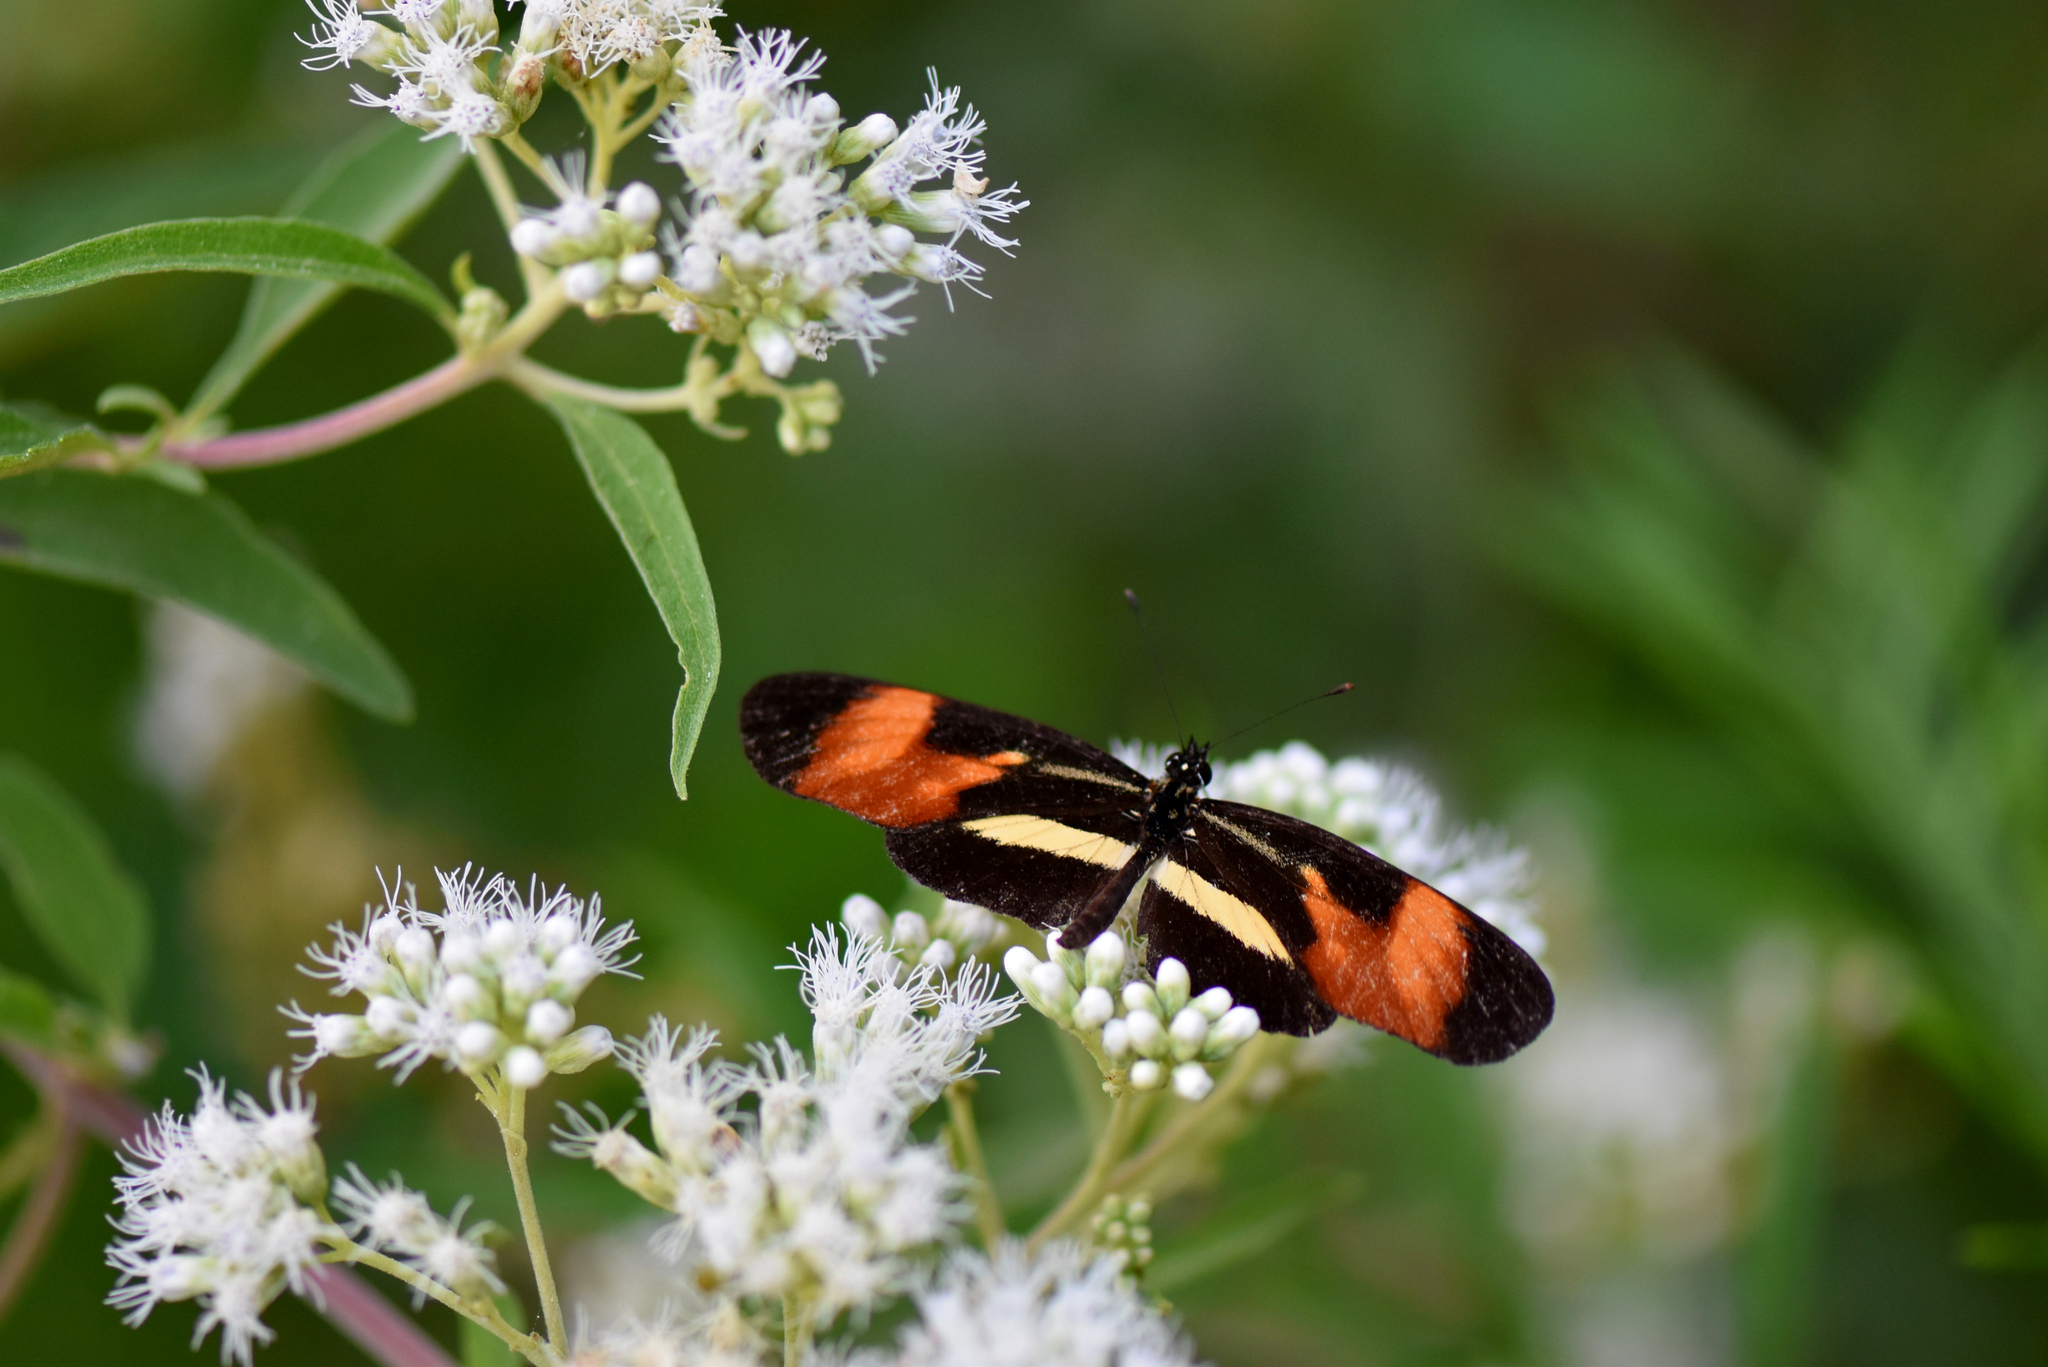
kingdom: Animalia
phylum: Arthropoda
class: Insecta
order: Lepidoptera
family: Nymphalidae
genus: Eresia
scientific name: Eresia lansdorfi
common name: Lansdorf's crescent
